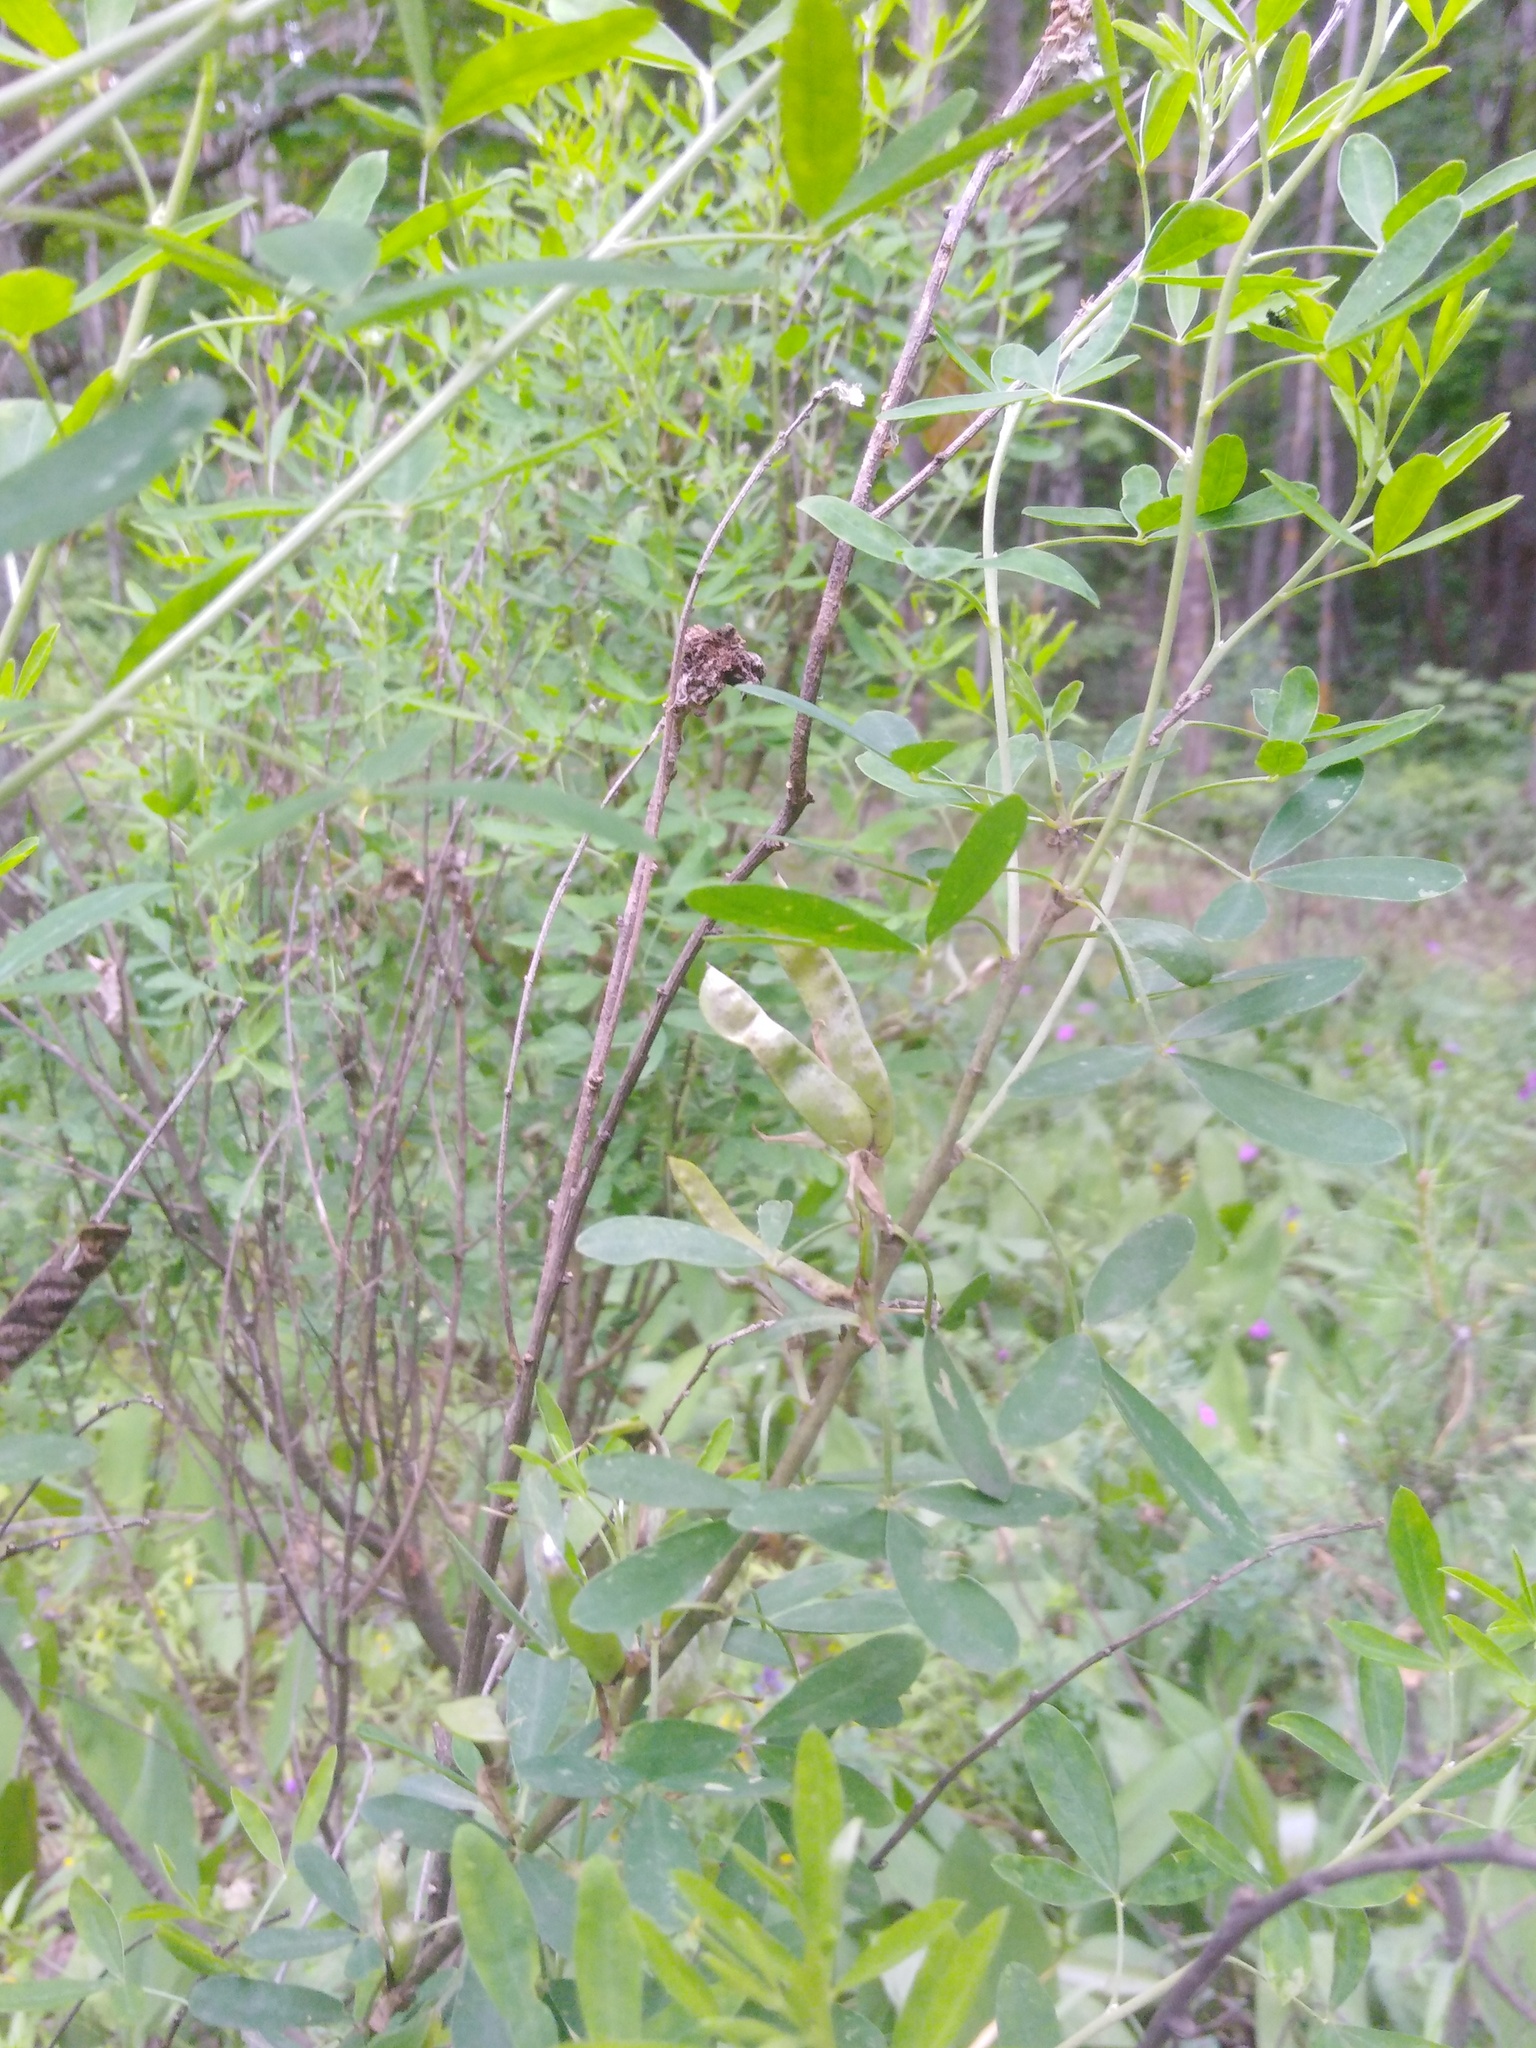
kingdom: Plantae
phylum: Tracheophyta
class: Magnoliopsida
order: Fabales
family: Fabaceae
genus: Chamaecytisus
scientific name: Chamaecytisus ruthenicus
